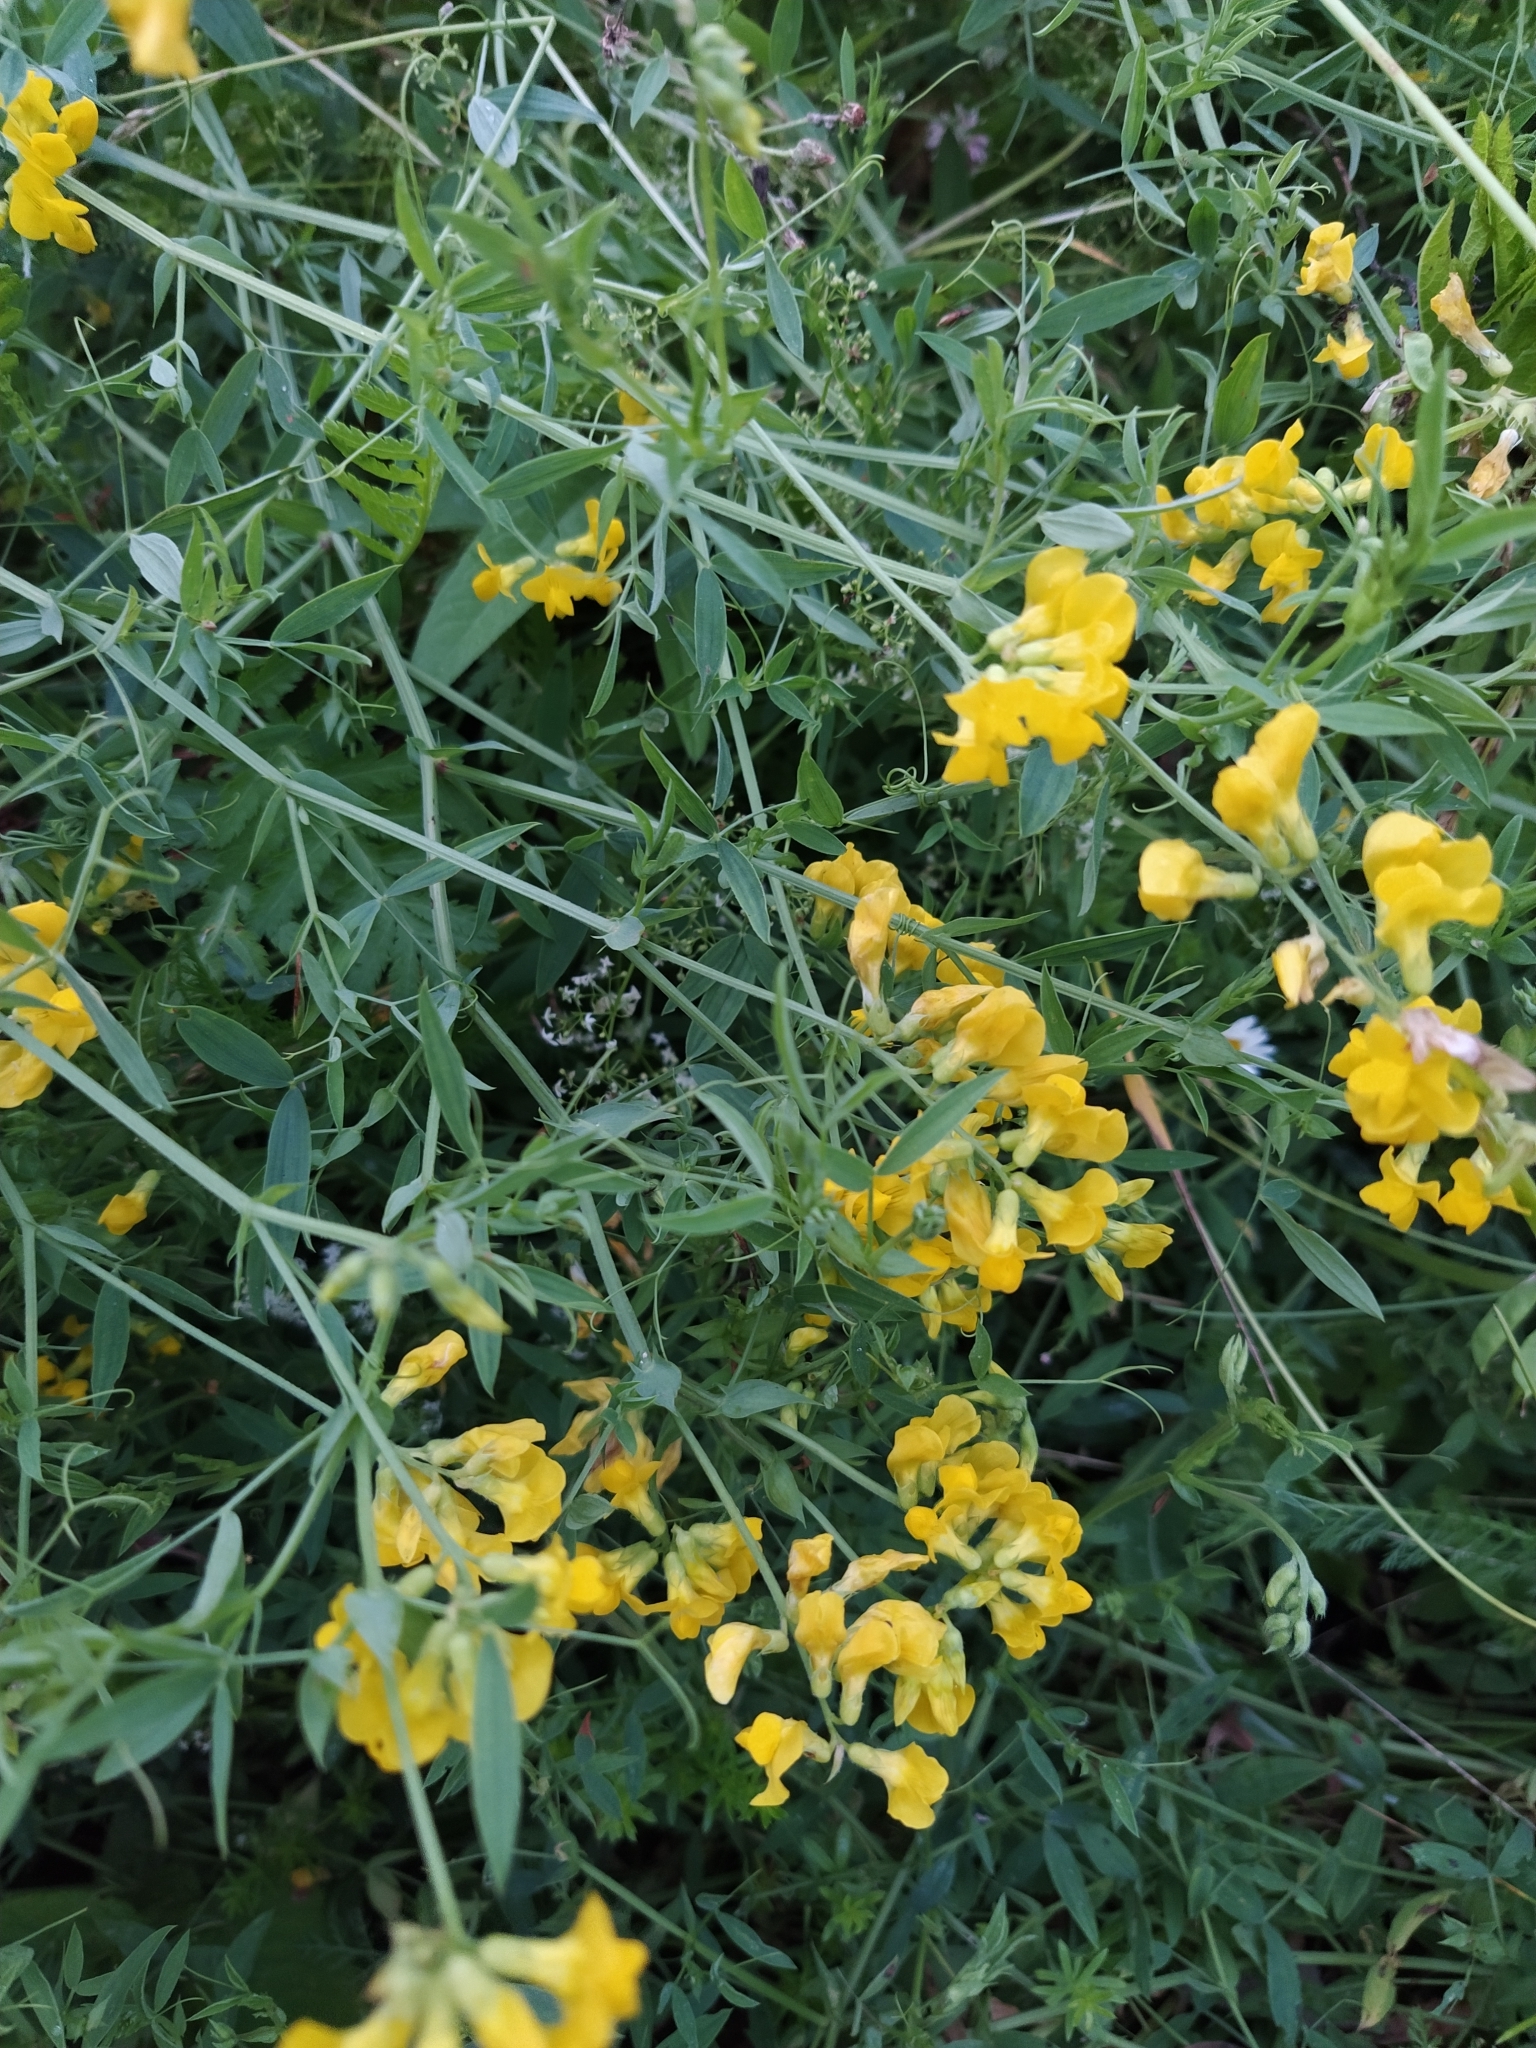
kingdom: Plantae
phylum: Tracheophyta
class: Magnoliopsida
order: Fabales
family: Fabaceae
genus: Lathyrus
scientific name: Lathyrus pratensis
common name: Meadow vetchling
